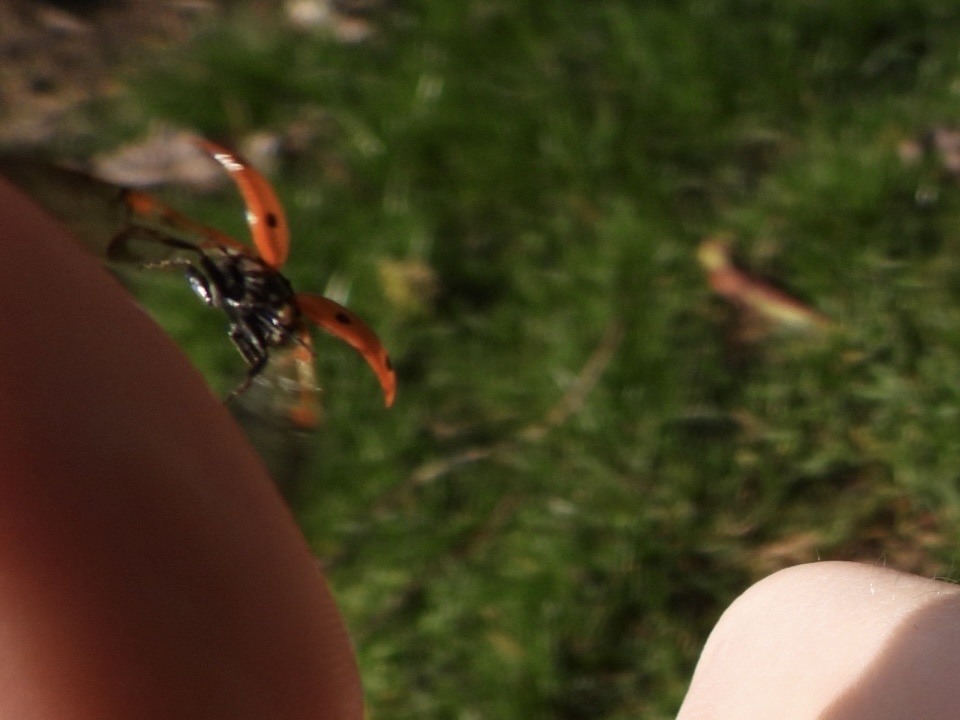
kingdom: Animalia
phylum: Arthropoda
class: Insecta
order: Coleoptera
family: Coccinellidae
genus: Coccinella
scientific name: Coccinella septempunctata
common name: Sevenspotted lady beetle
